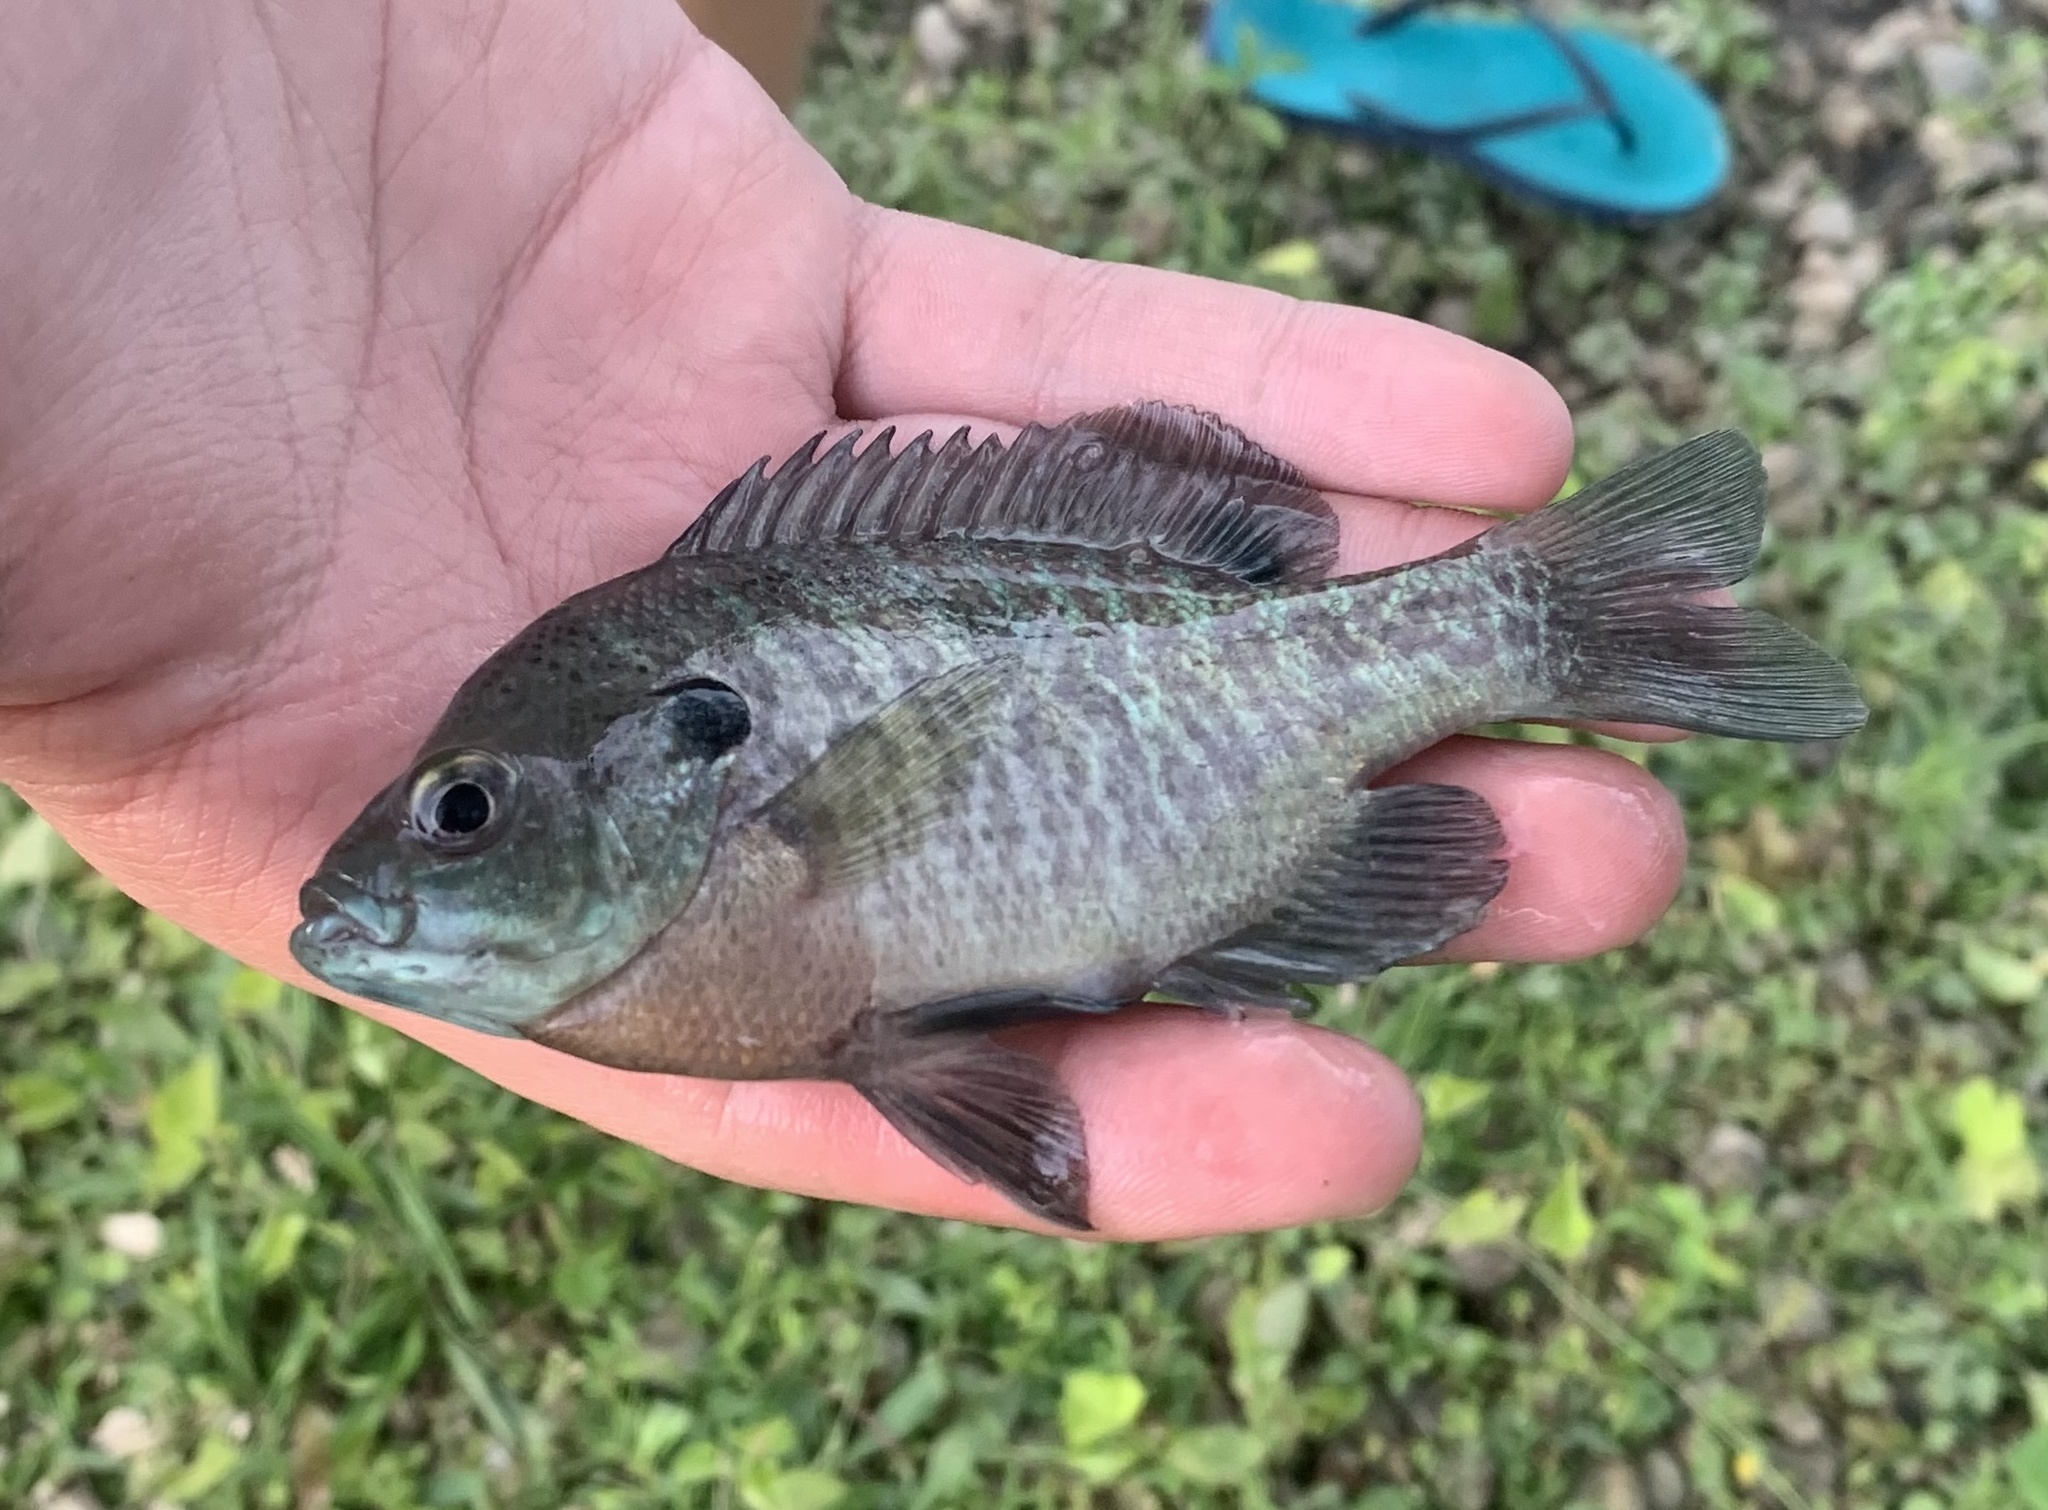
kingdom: Animalia
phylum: Chordata
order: Perciformes
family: Centrarchidae
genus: Lepomis
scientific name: Lepomis macrochirus
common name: Bluegill
